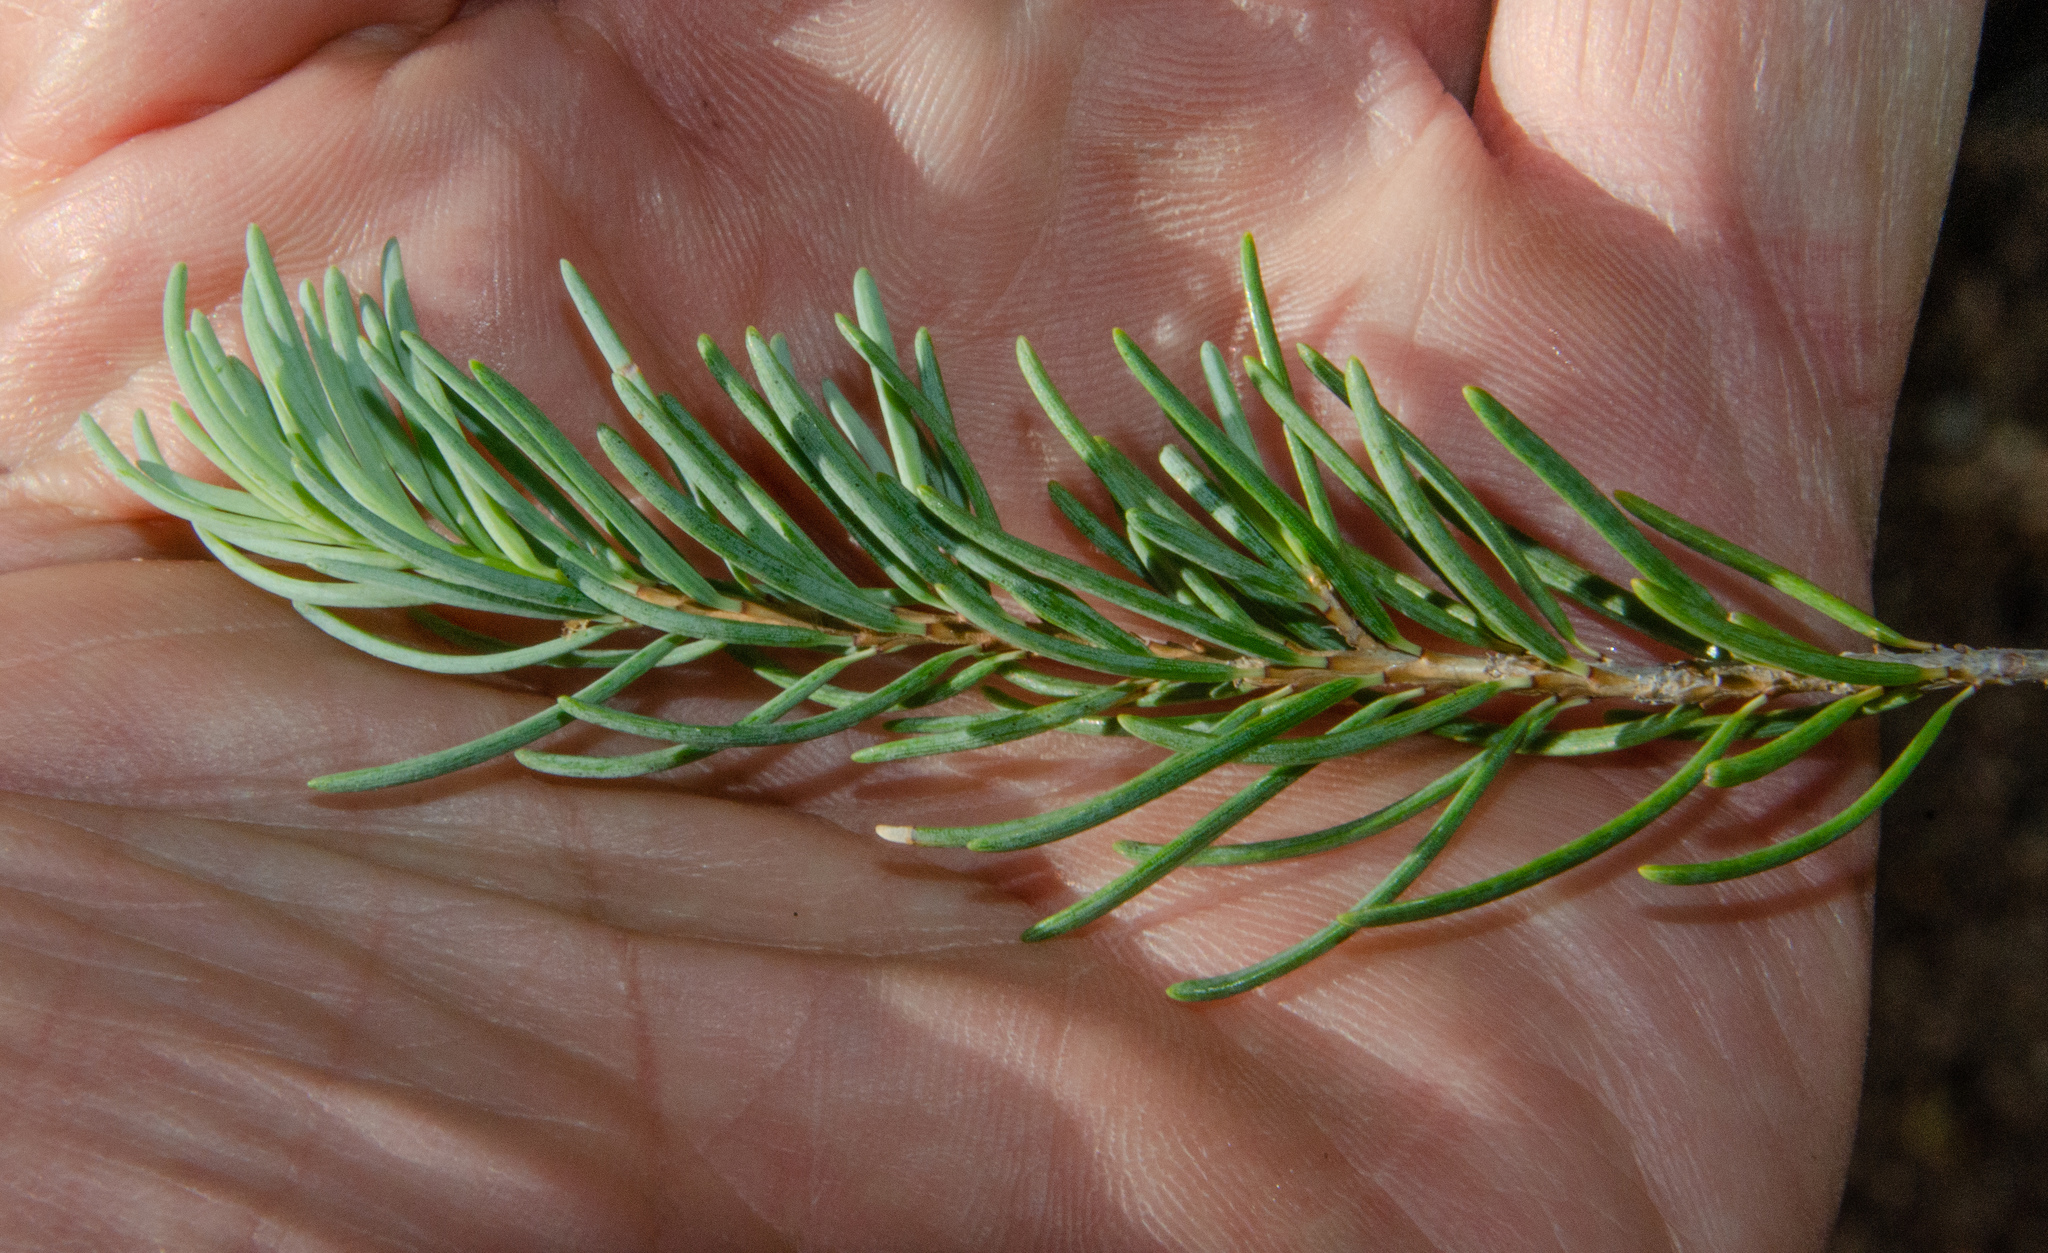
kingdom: Plantae
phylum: Tracheophyta
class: Pinopsida
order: Pinales
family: Pinaceae
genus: Tsuga
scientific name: Tsuga mertensiana
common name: Mountain hemlock
